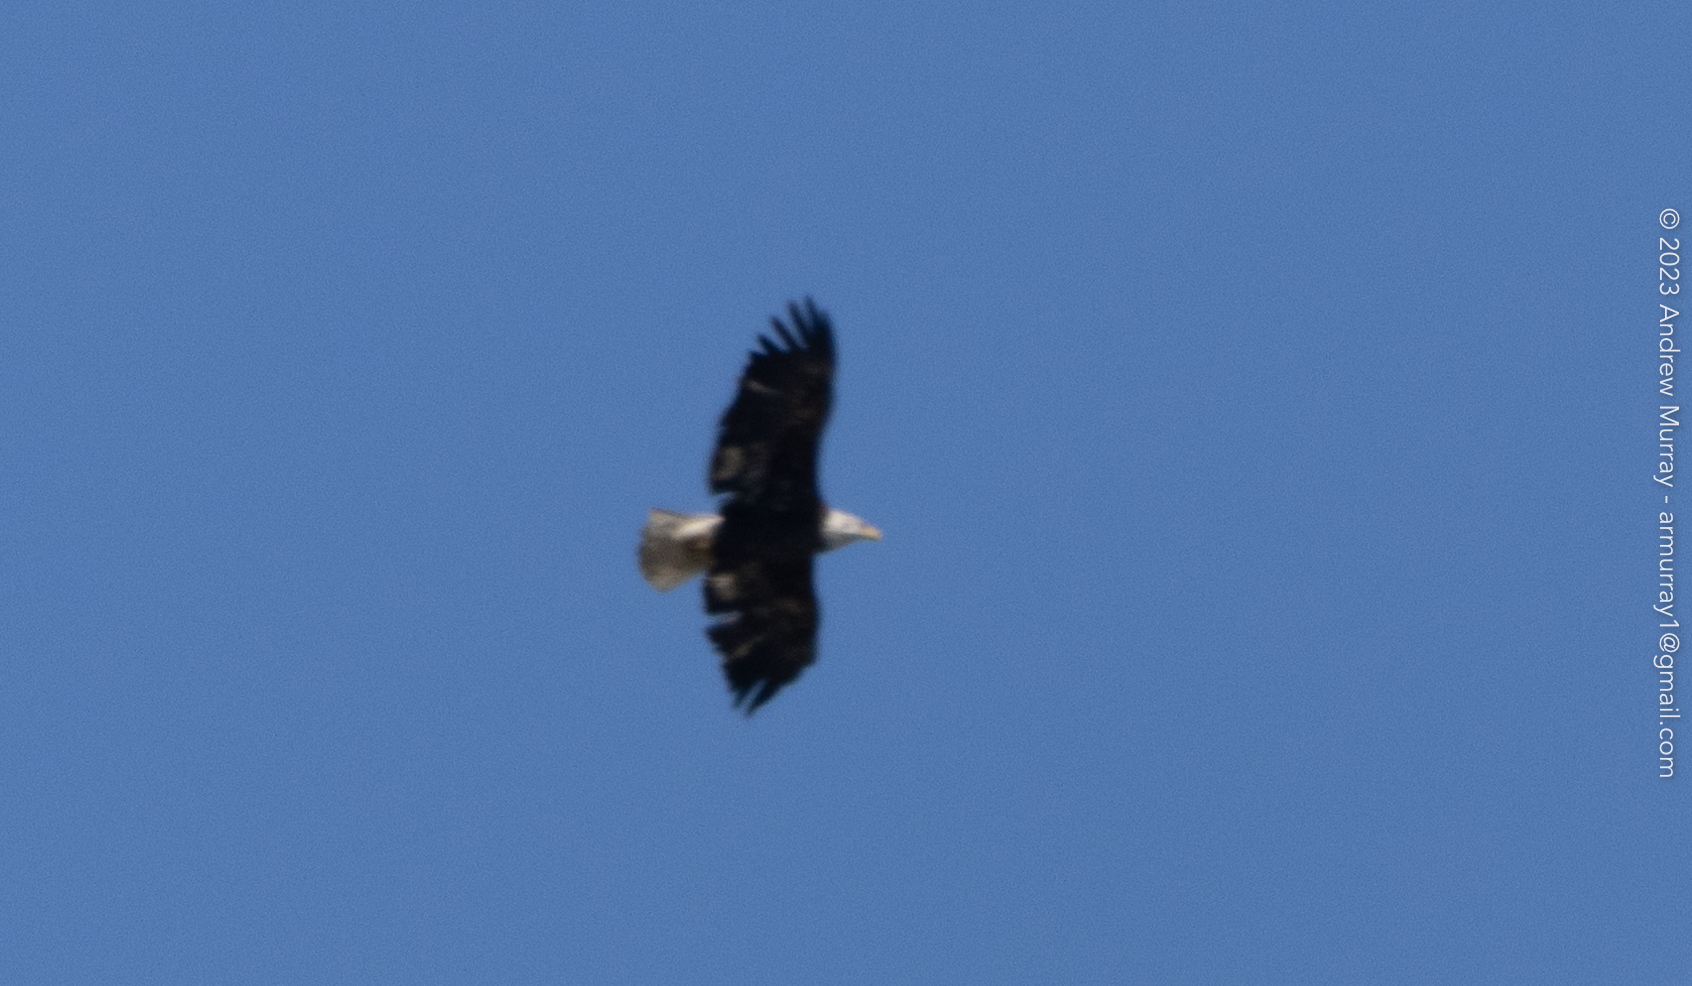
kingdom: Animalia
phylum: Chordata
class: Aves
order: Accipitriformes
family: Accipitridae
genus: Haliaeetus
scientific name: Haliaeetus leucocephalus
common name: Bald eagle
